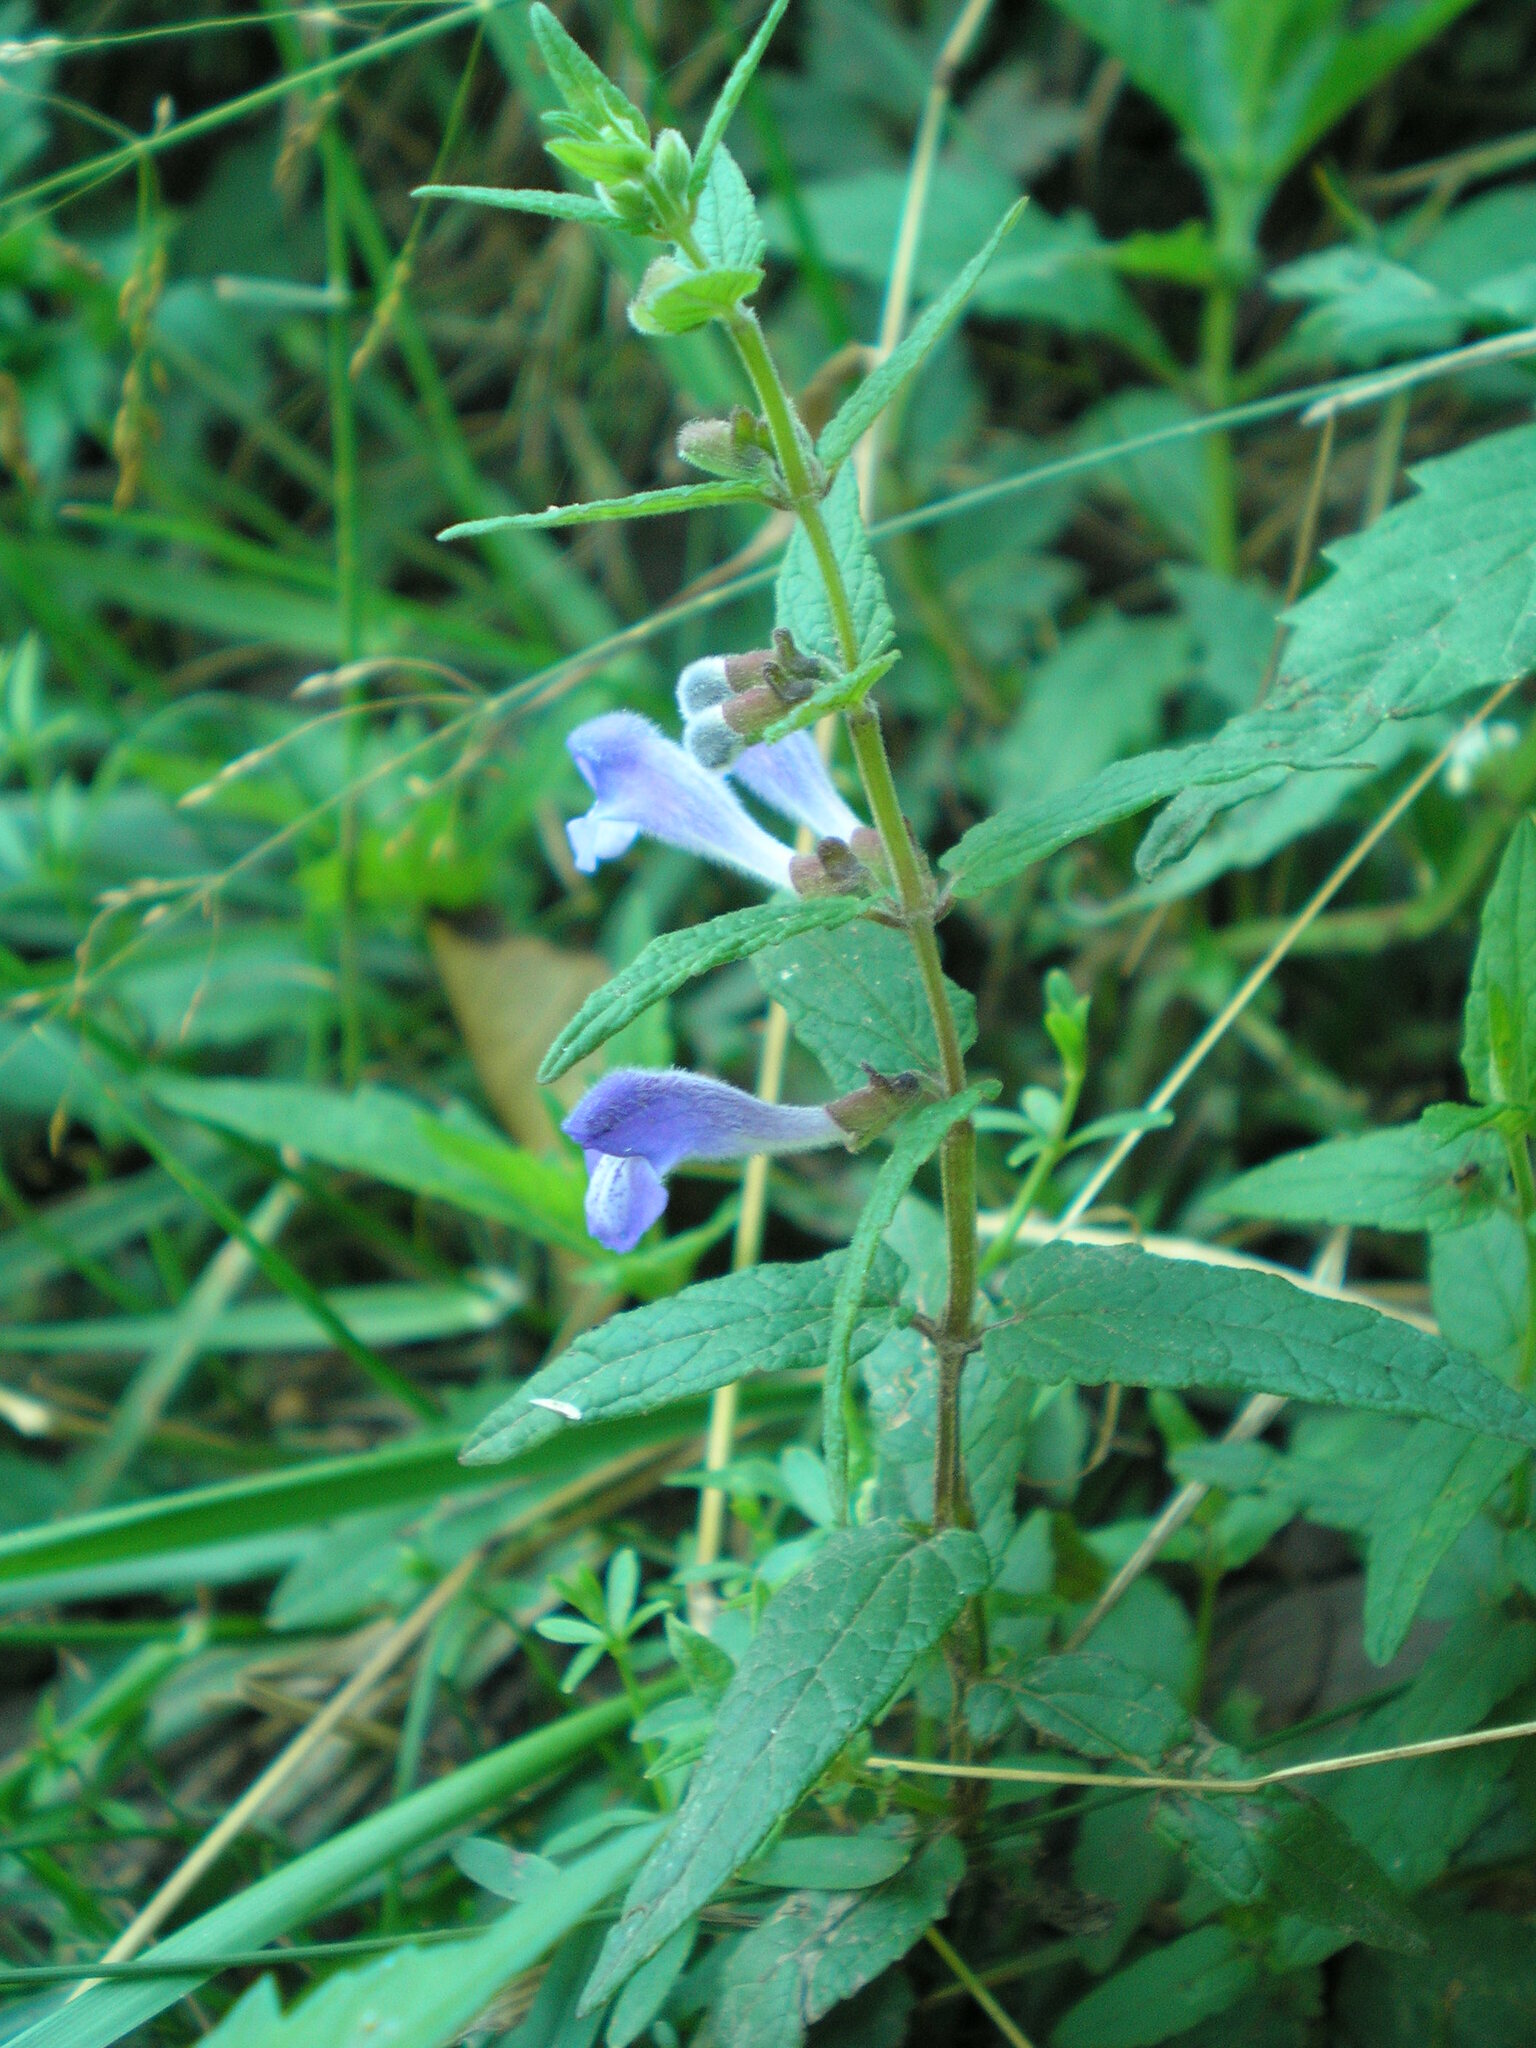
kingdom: Plantae
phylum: Tracheophyta
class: Magnoliopsida
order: Lamiales
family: Lamiaceae
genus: Scutellaria
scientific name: Scutellaria galericulata
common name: Skullcap
